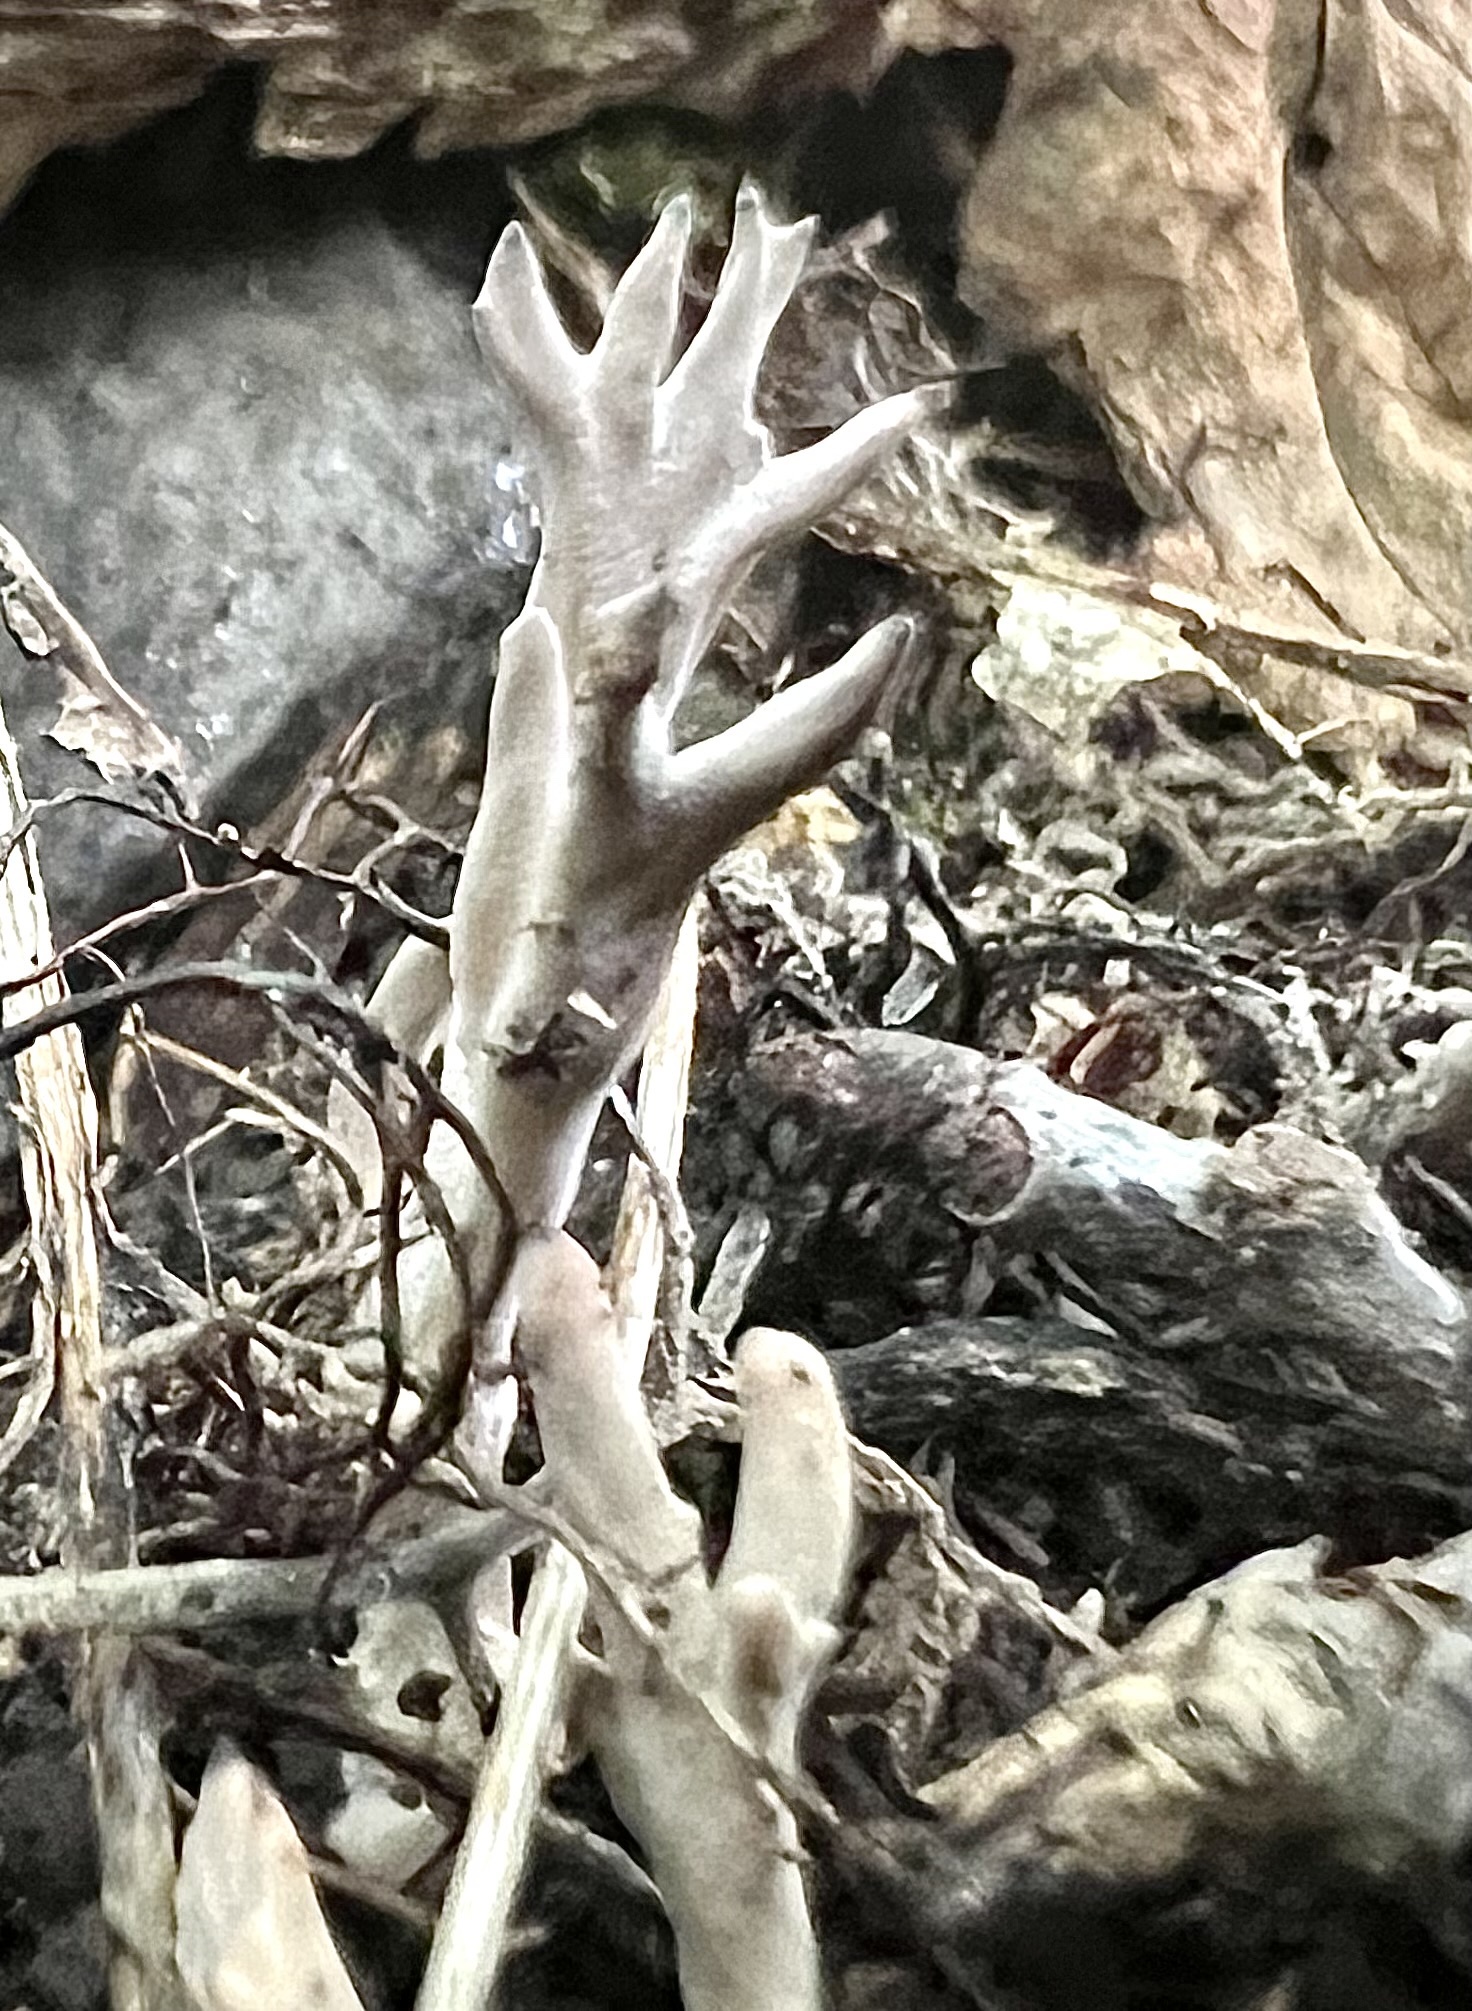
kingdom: Fungi
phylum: Ascomycota
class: Sordariomycetes
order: Xylariales
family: Xylariaceae
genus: Xylaria
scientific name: Xylaria hypoxylon
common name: Candle-snuff fungus
